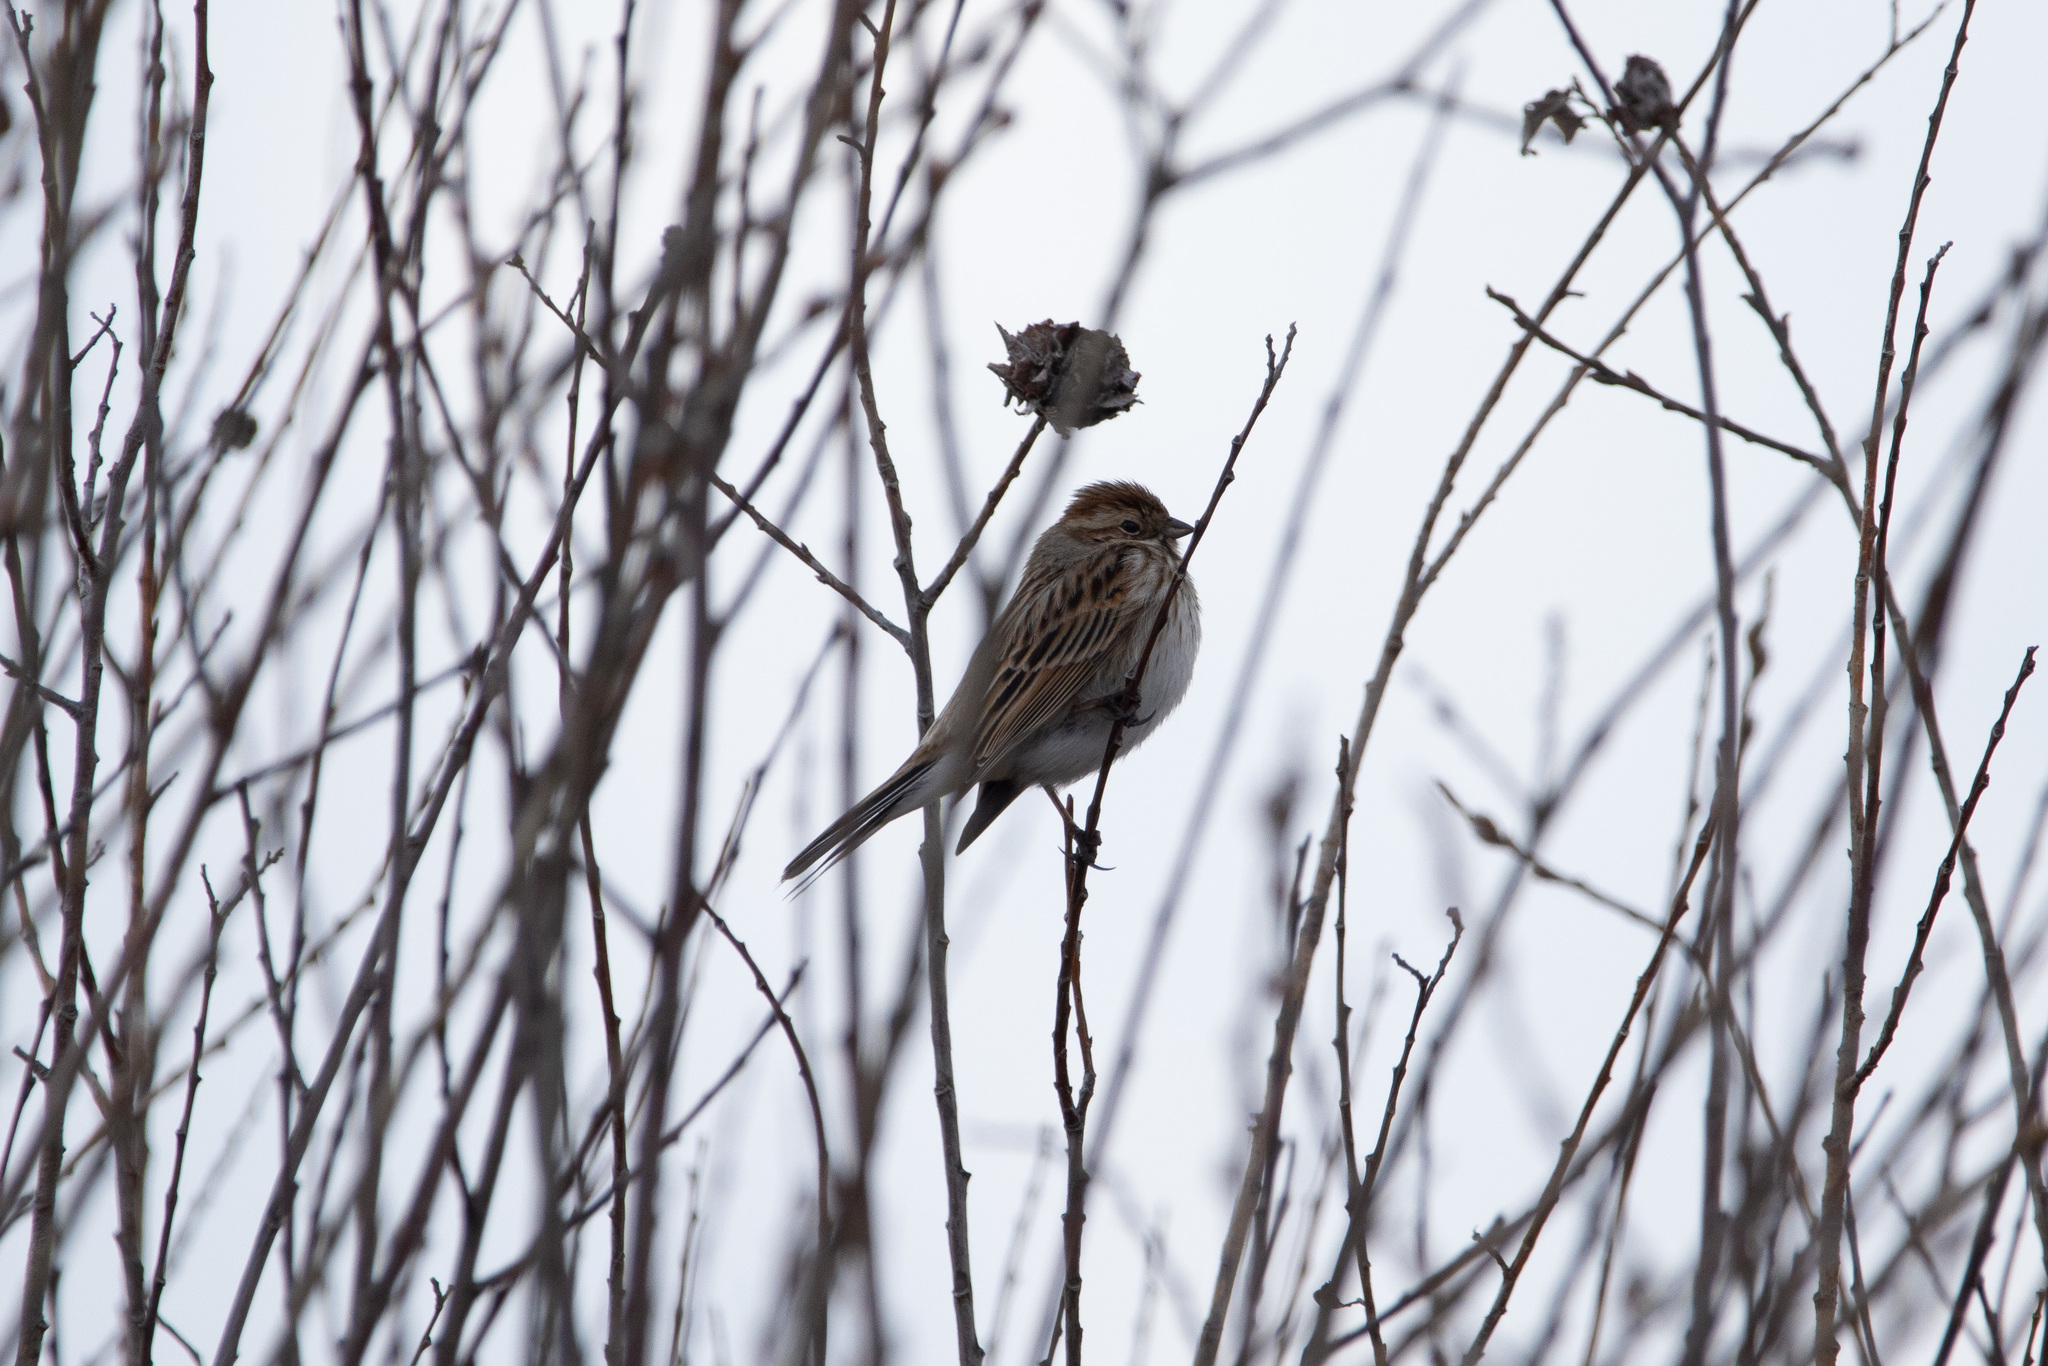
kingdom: Animalia
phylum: Chordata
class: Aves
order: Passeriformes
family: Emberizidae
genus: Emberiza
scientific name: Emberiza schoeniclus
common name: Reed bunting
